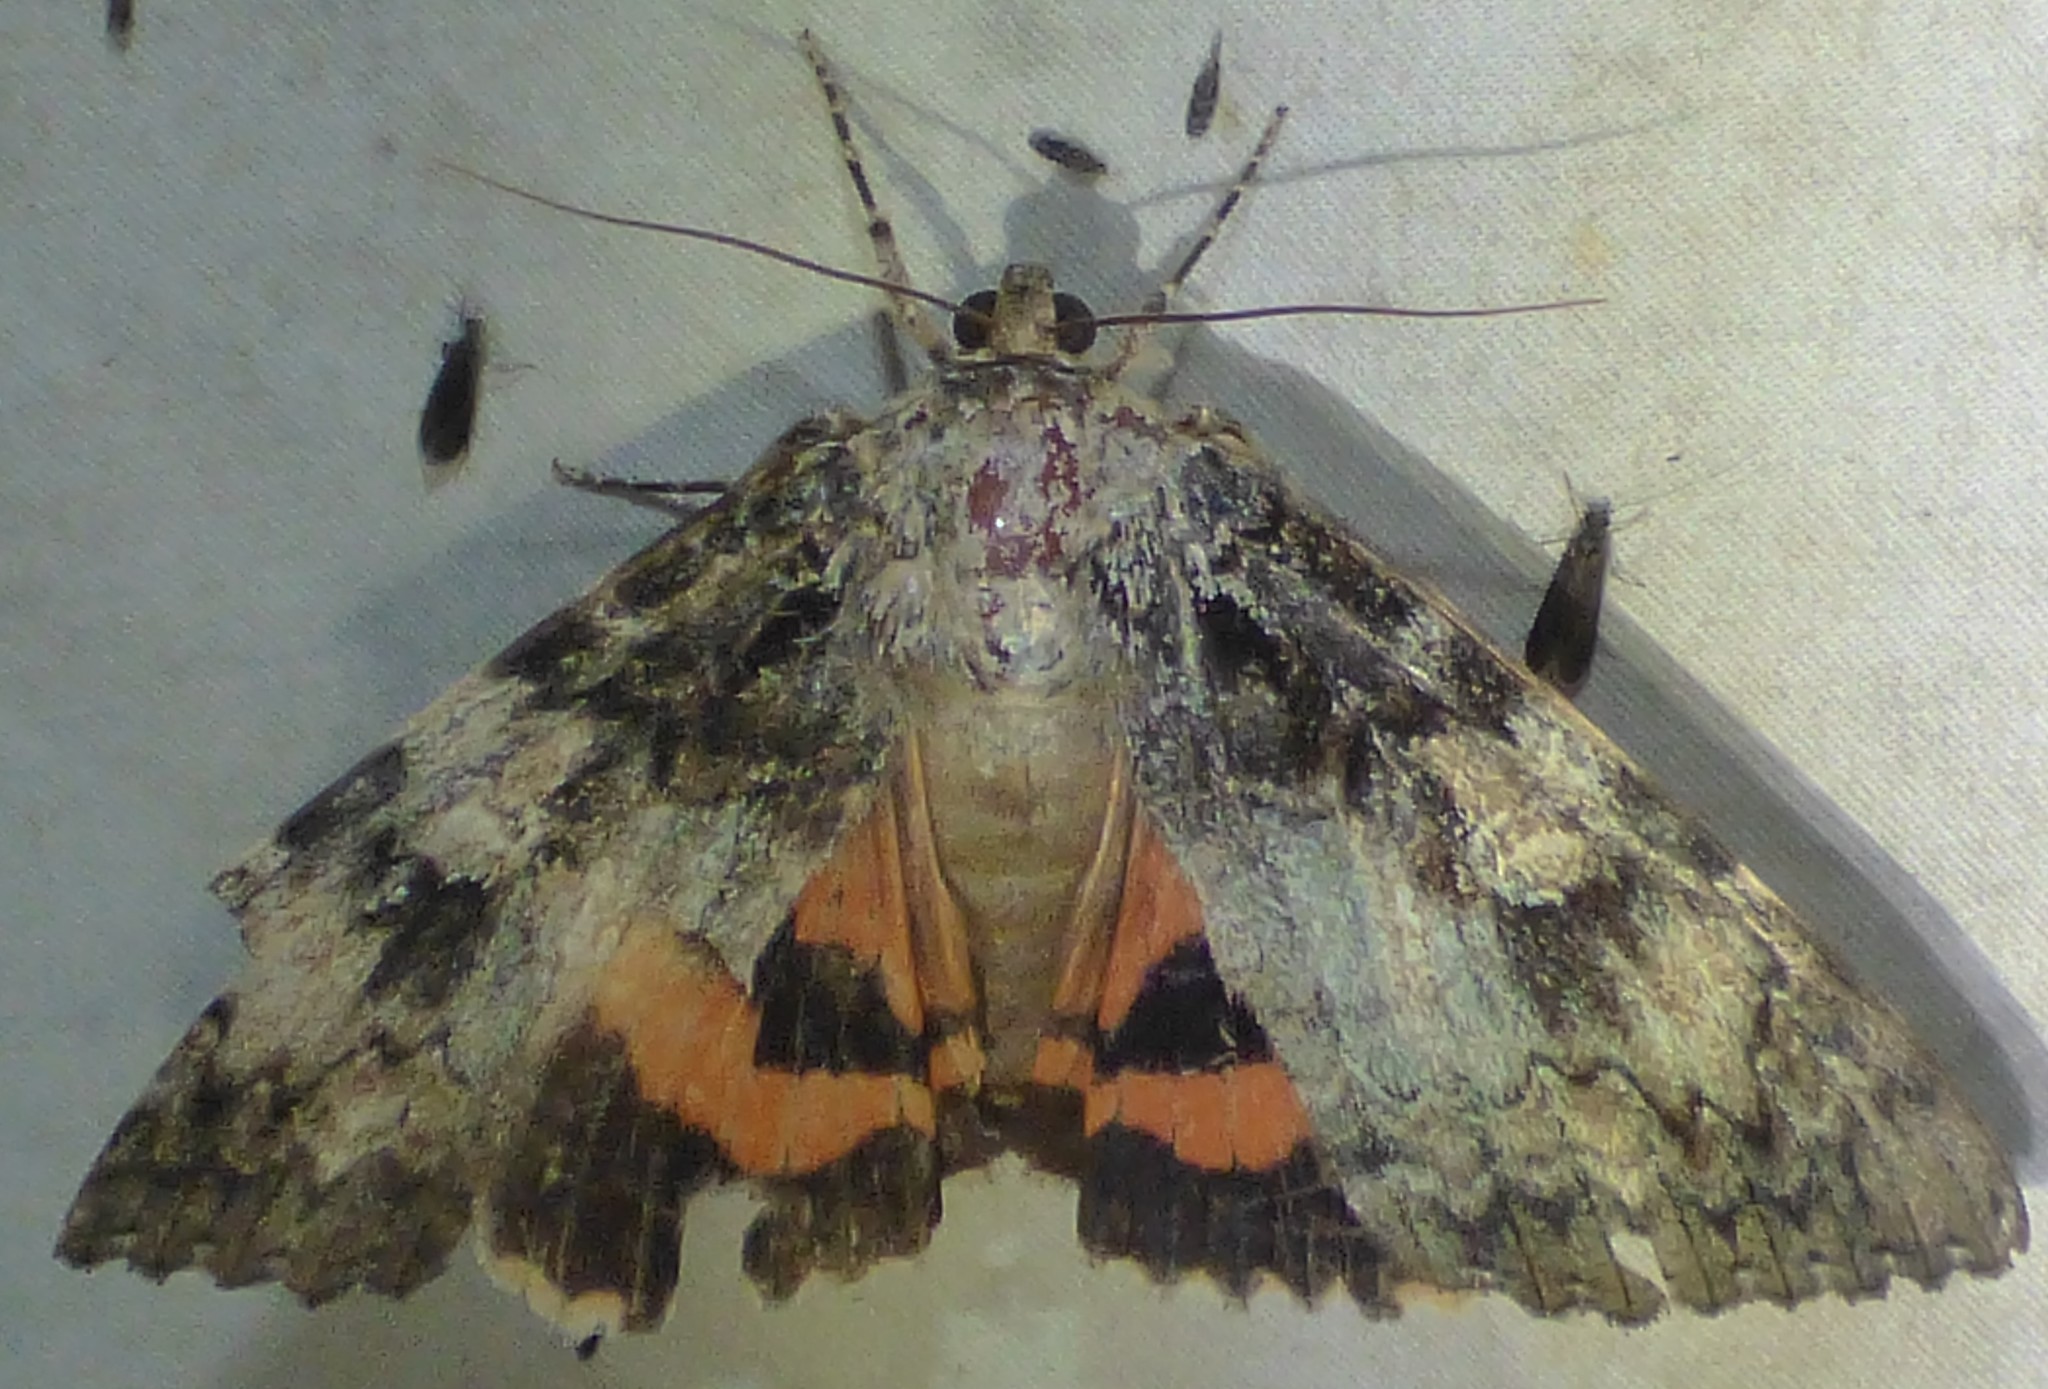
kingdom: Animalia
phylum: Arthropoda
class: Insecta
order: Lepidoptera
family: Erebidae
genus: Catocala
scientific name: Catocala ilia
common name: Ilia underwing
